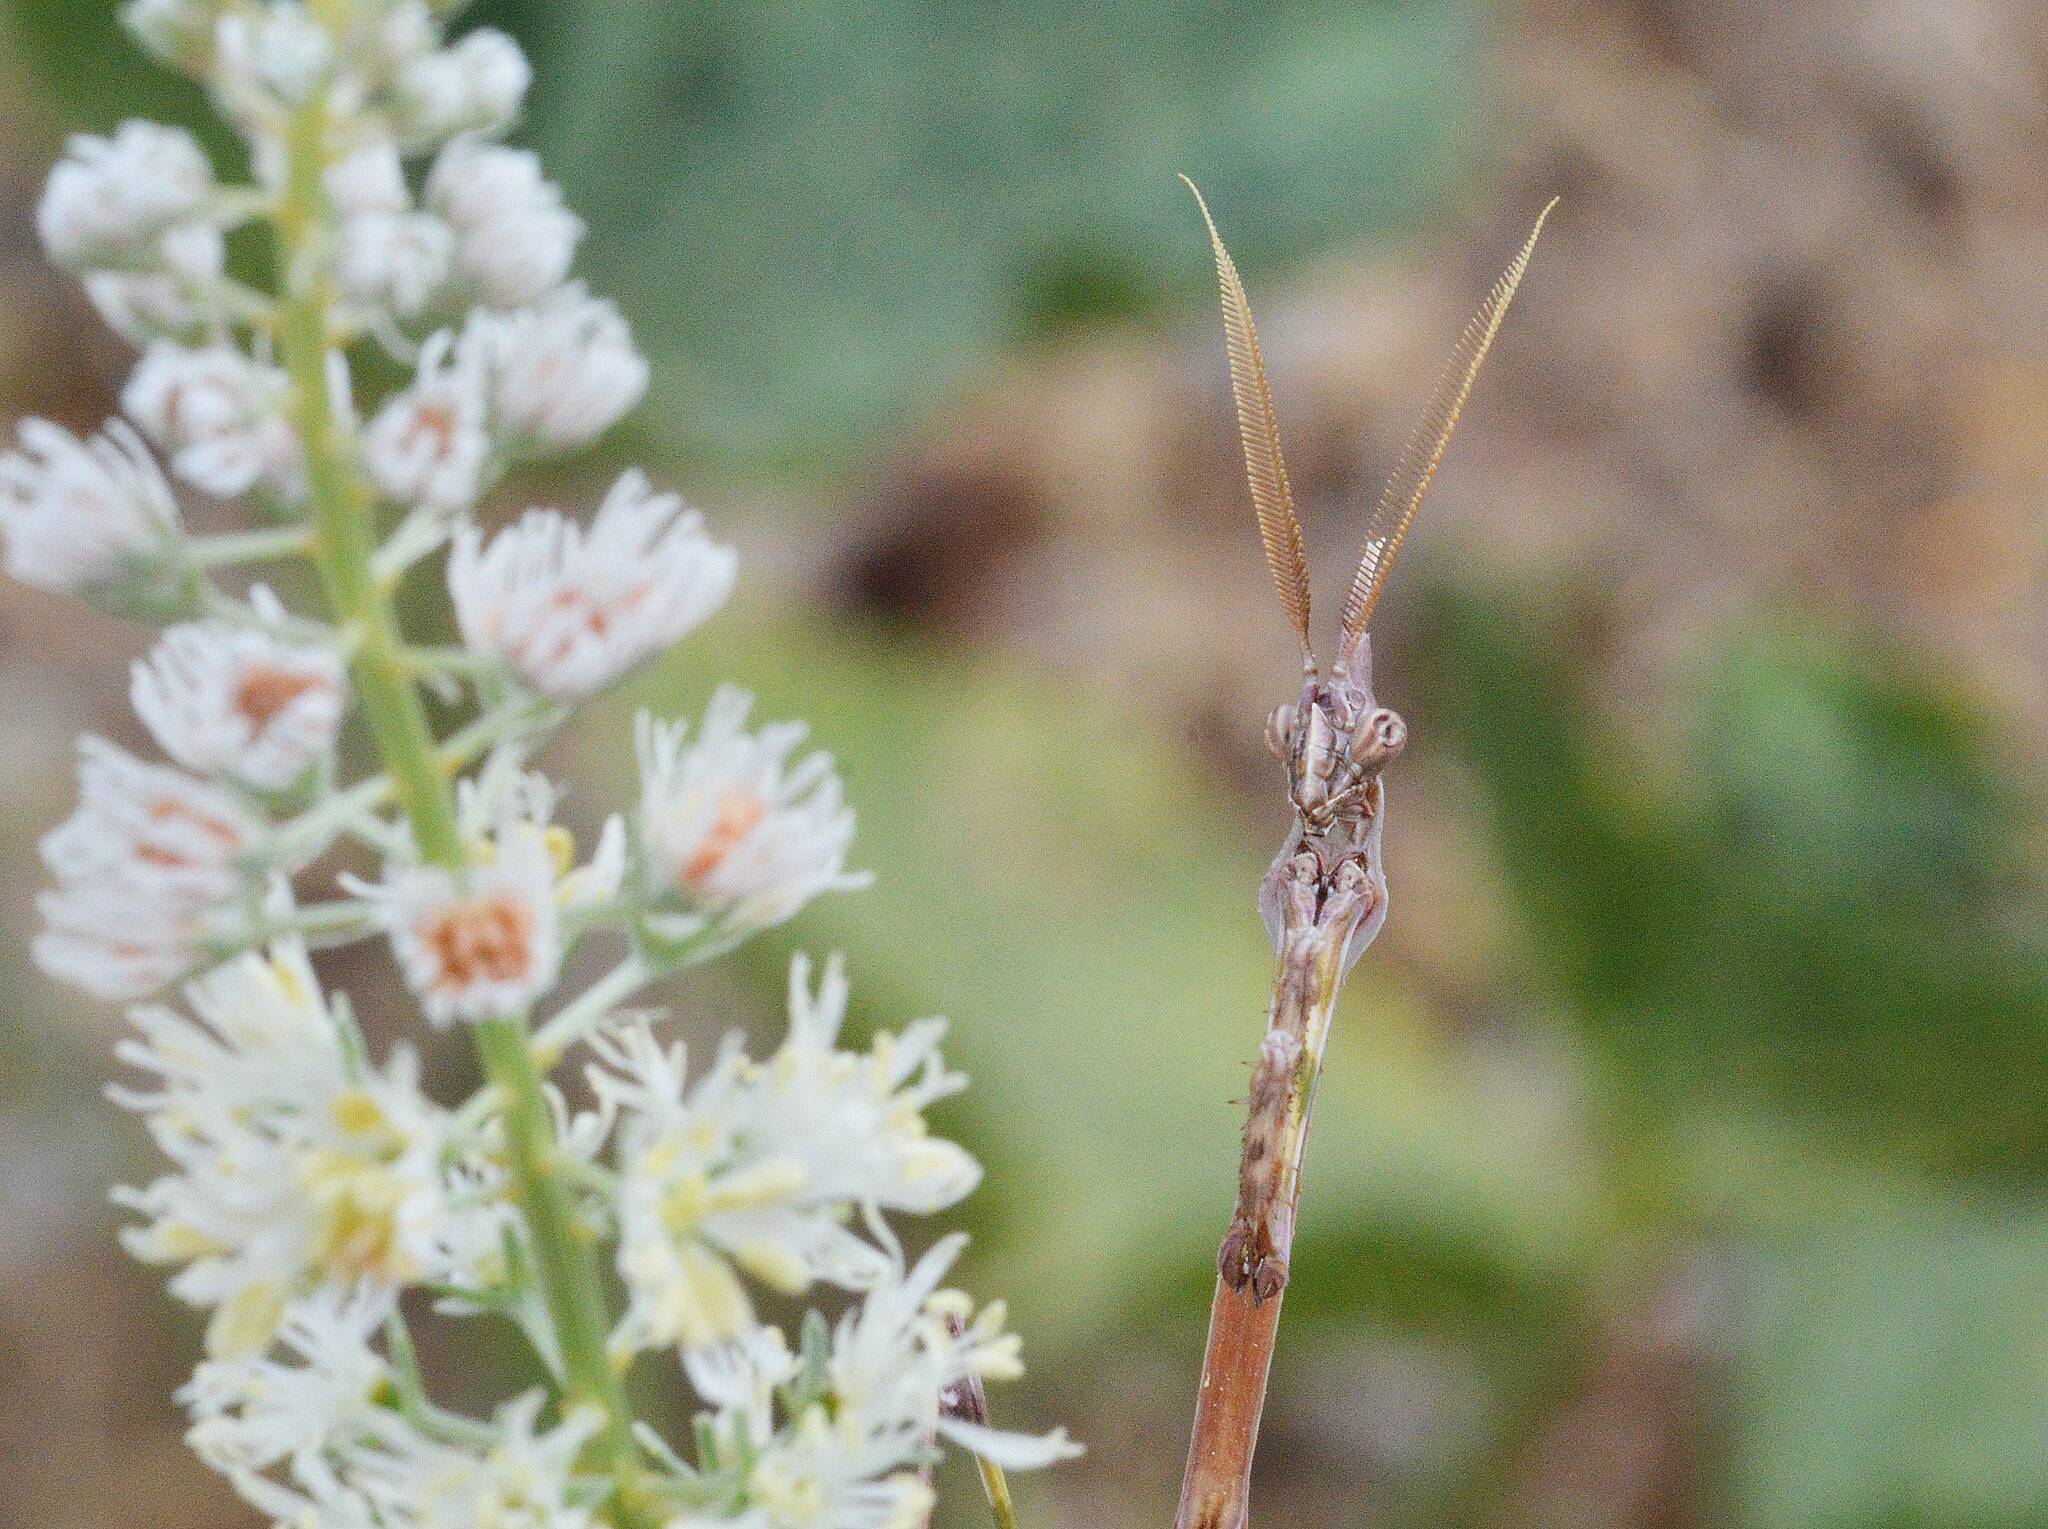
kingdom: Animalia
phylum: Arthropoda
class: Insecta
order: Mantodea
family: Empusidae
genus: Empusa
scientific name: Empusa pennata
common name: Conehead mantis
